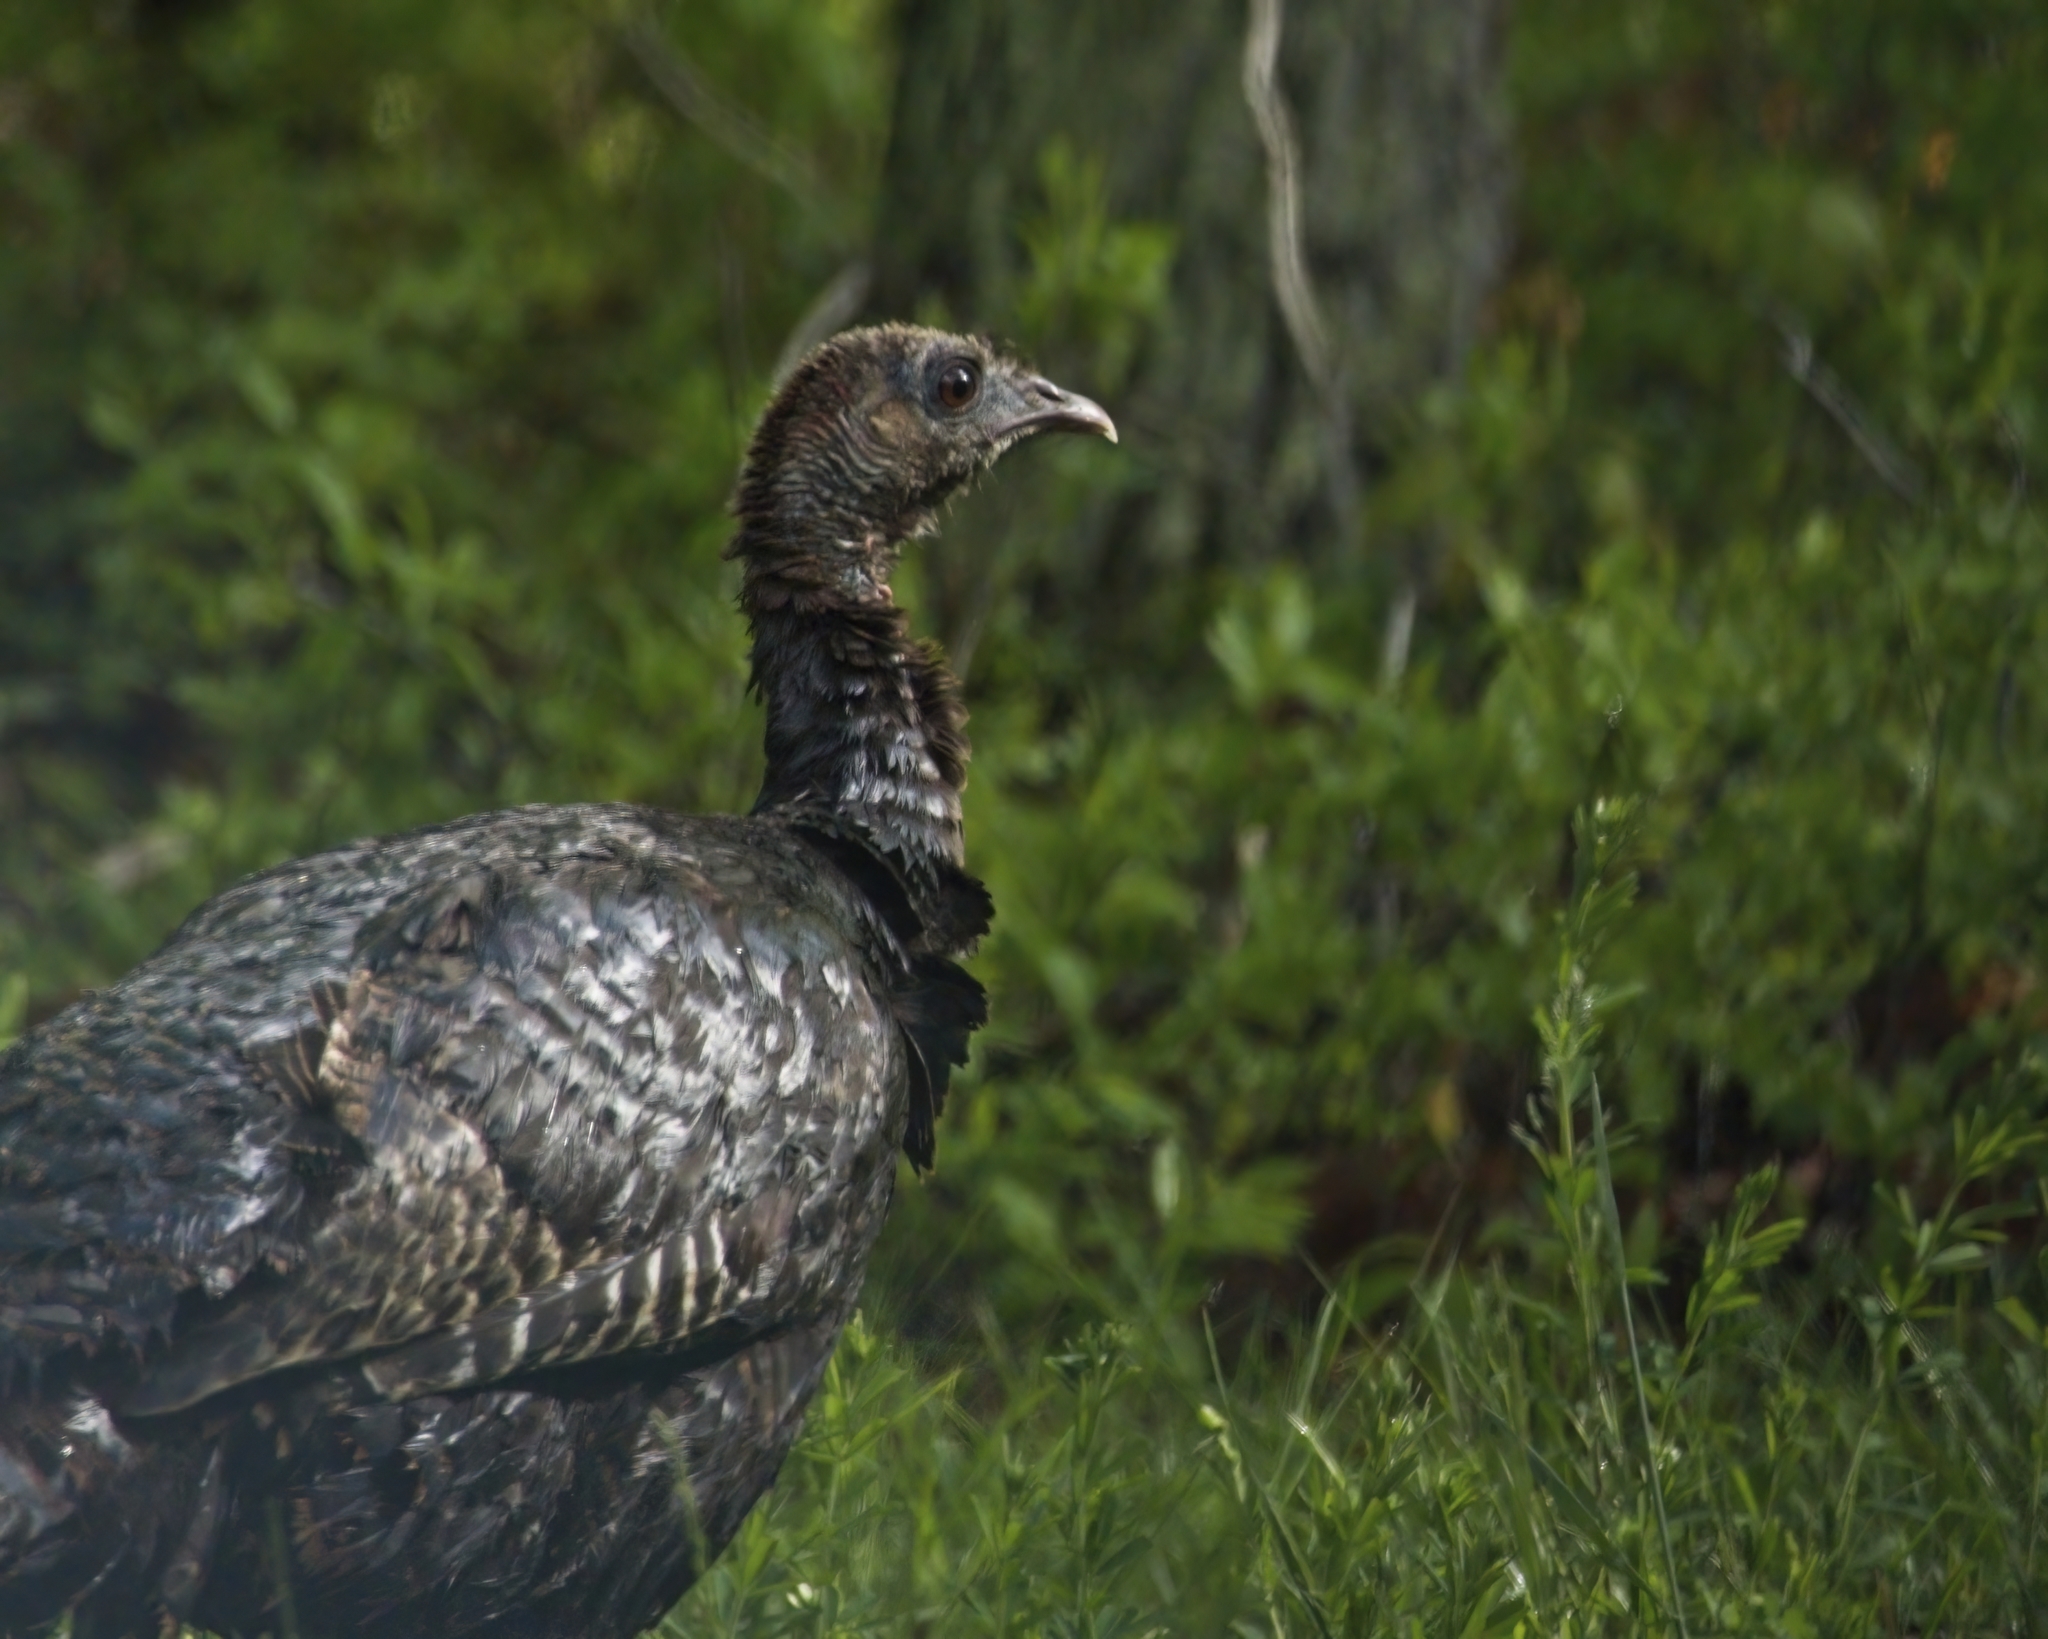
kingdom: Animalia
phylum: Chordata
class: Aves
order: Galliformes
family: Phasianidae
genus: Meleagris
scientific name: Meleagris gallopavo
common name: Wild turkey
